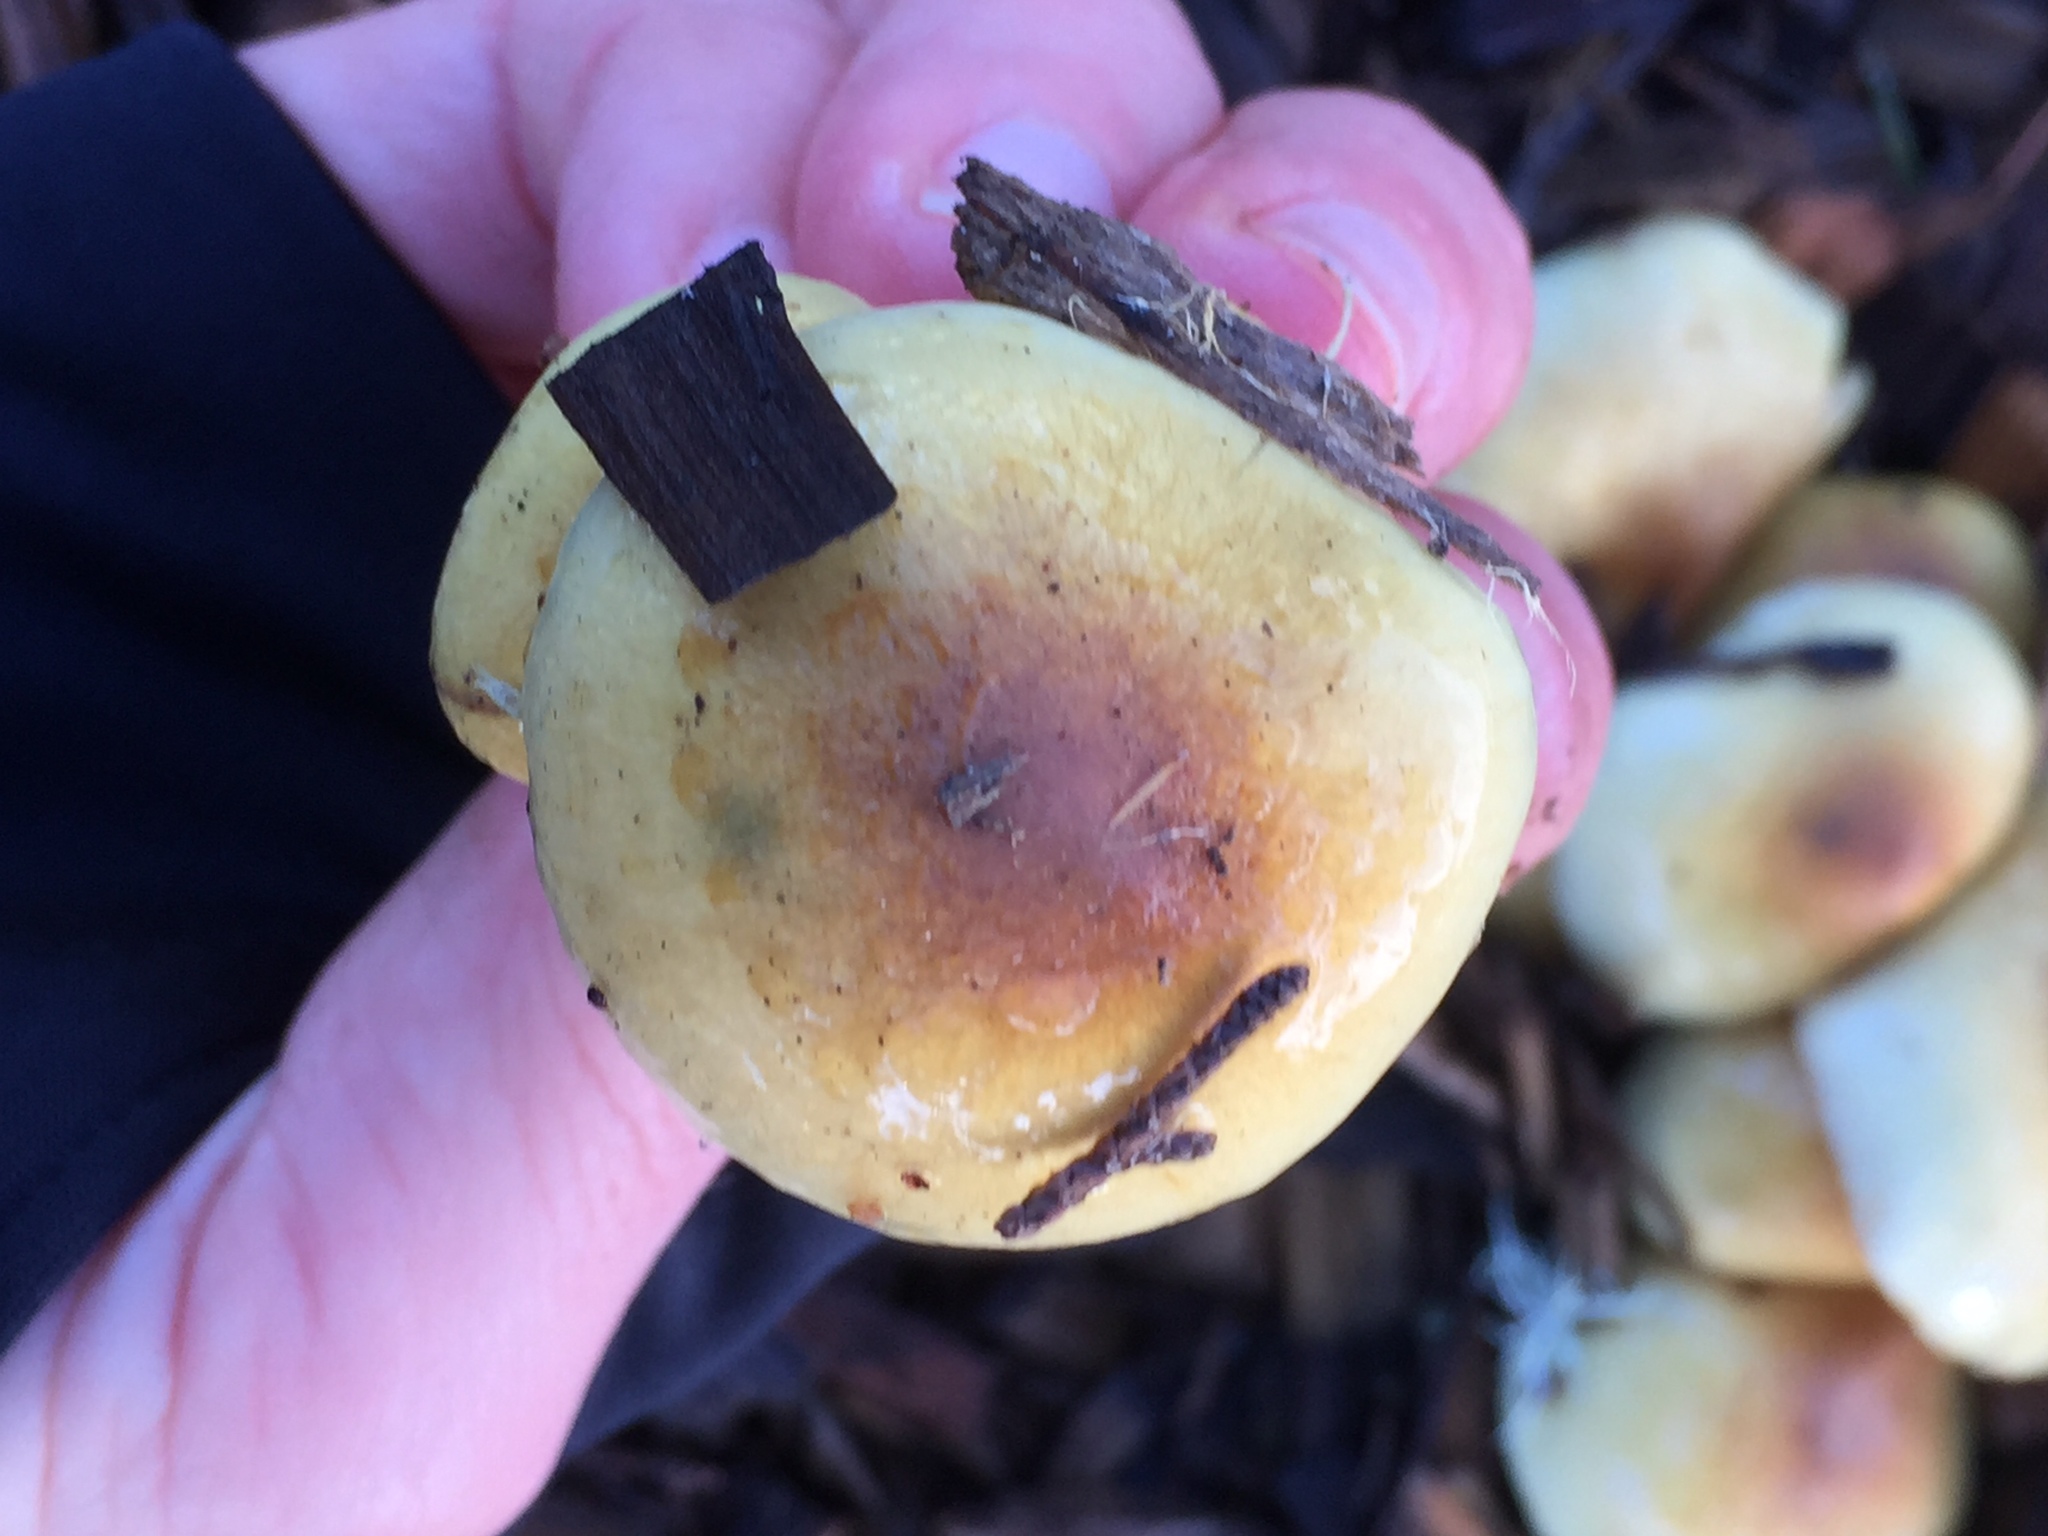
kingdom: Fungi
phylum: Basidiomycota
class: Agaricomycetes
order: Agaricales
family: Strophariaceae
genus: Hypholoma
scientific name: Hypholoma fasciculare
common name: Sulphur tuft
